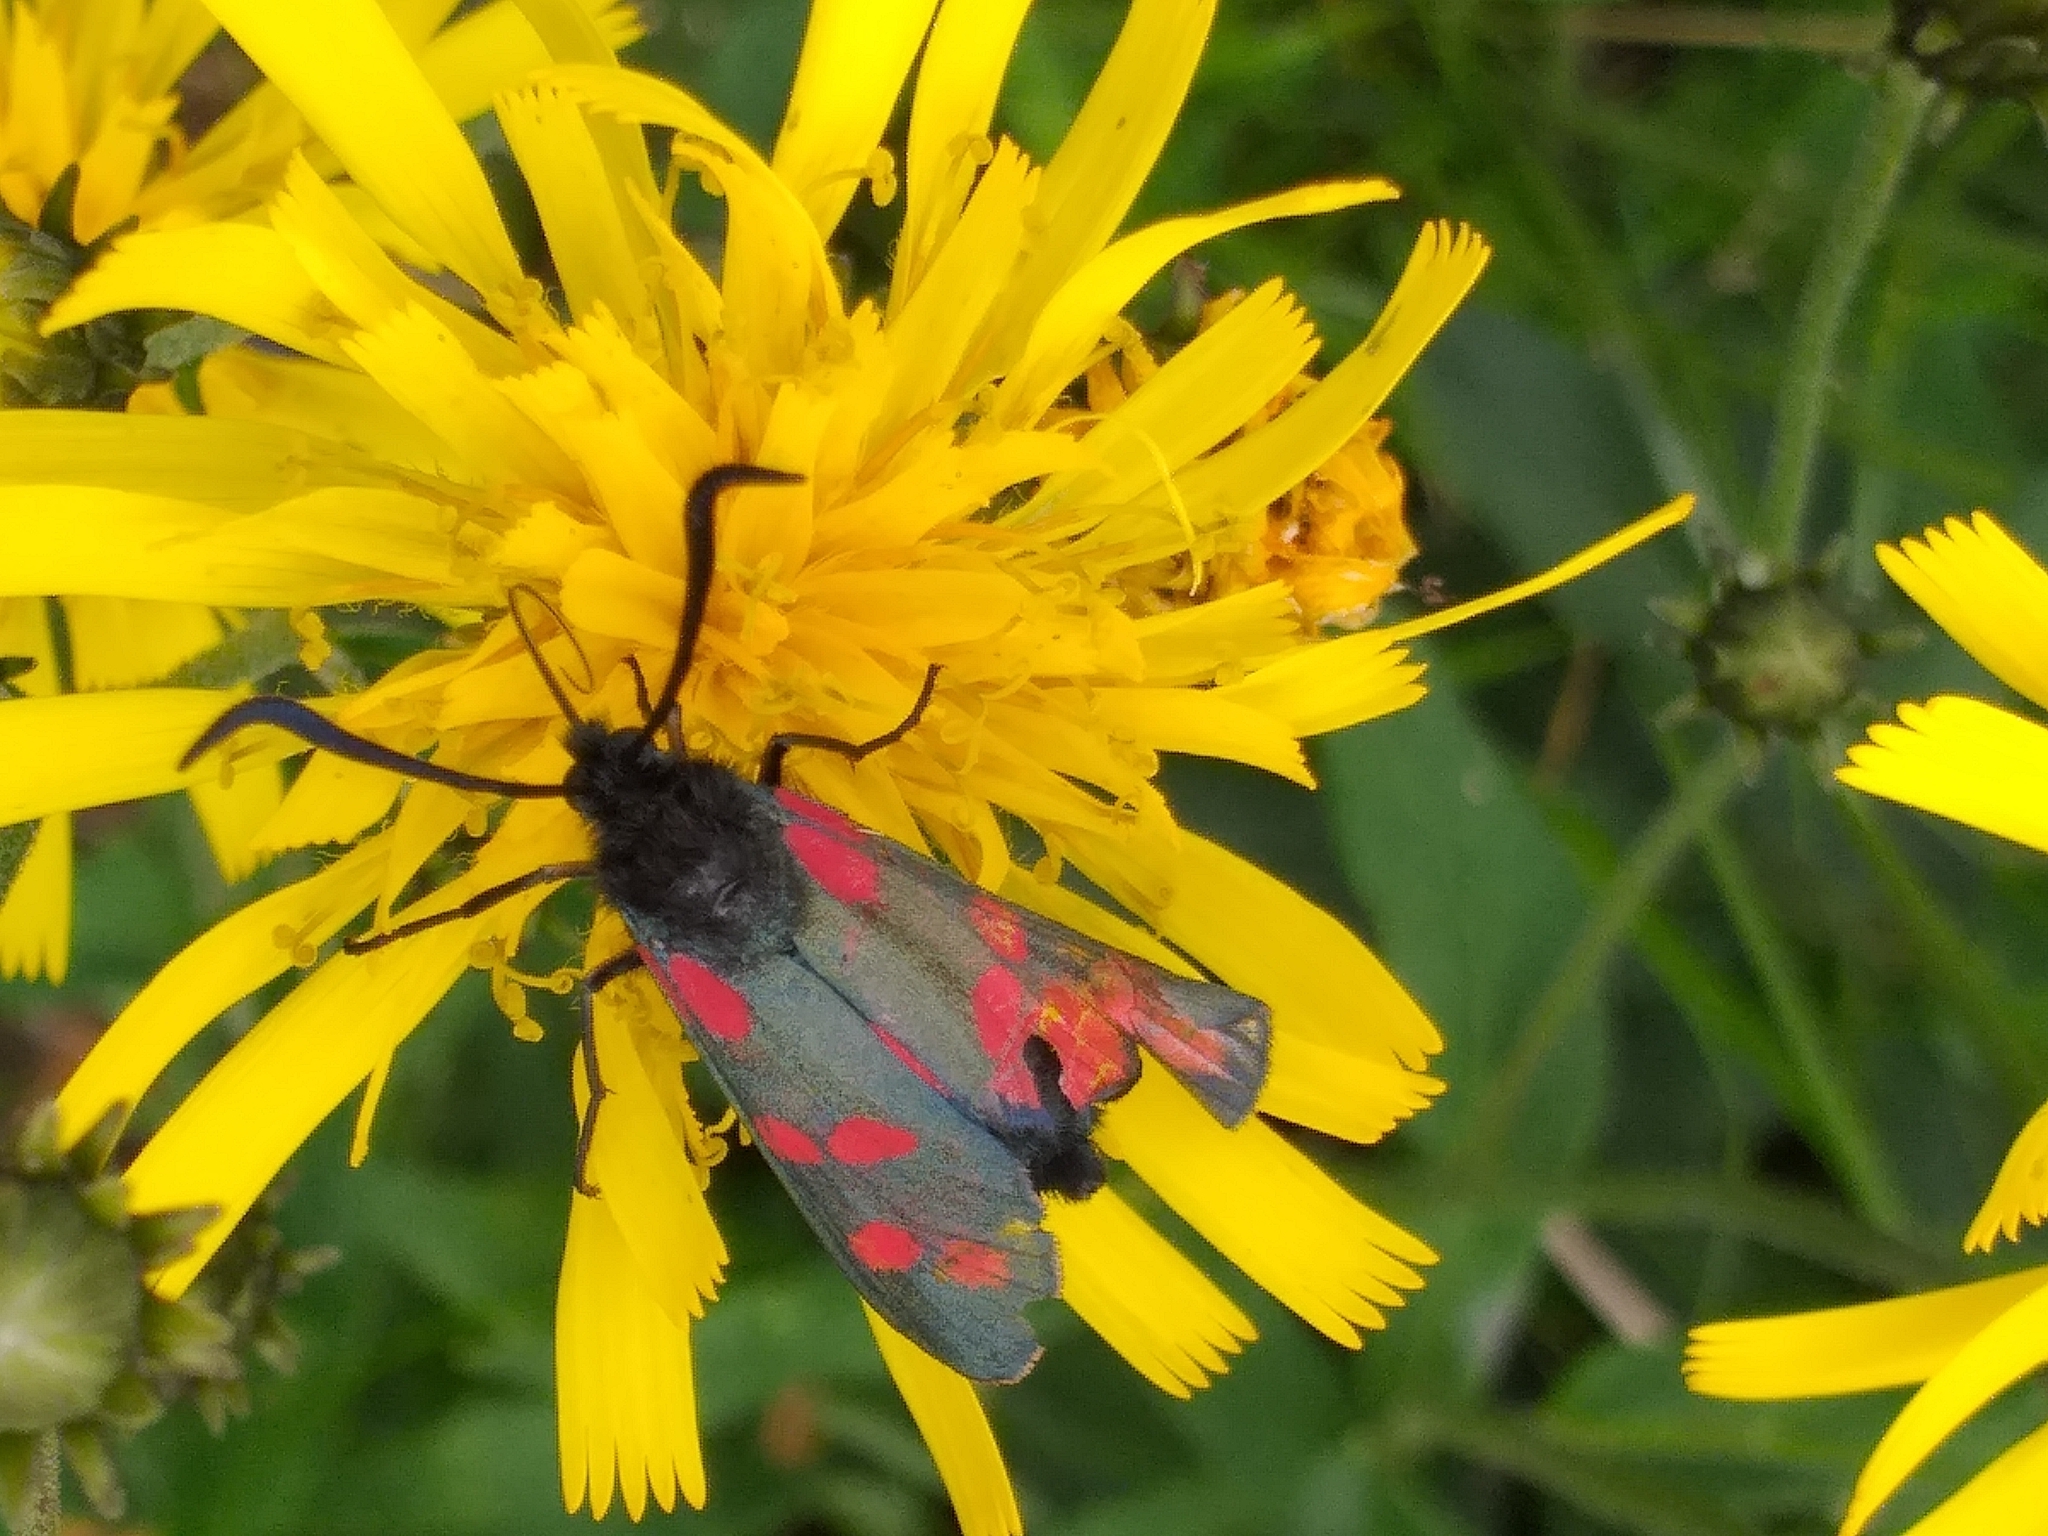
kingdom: Animalia
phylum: Arthropoda
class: Insecta
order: Lepidoptera
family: Zygaenidae
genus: Zygaena
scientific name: Zygaena filipendulae
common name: Six-spot burnet
